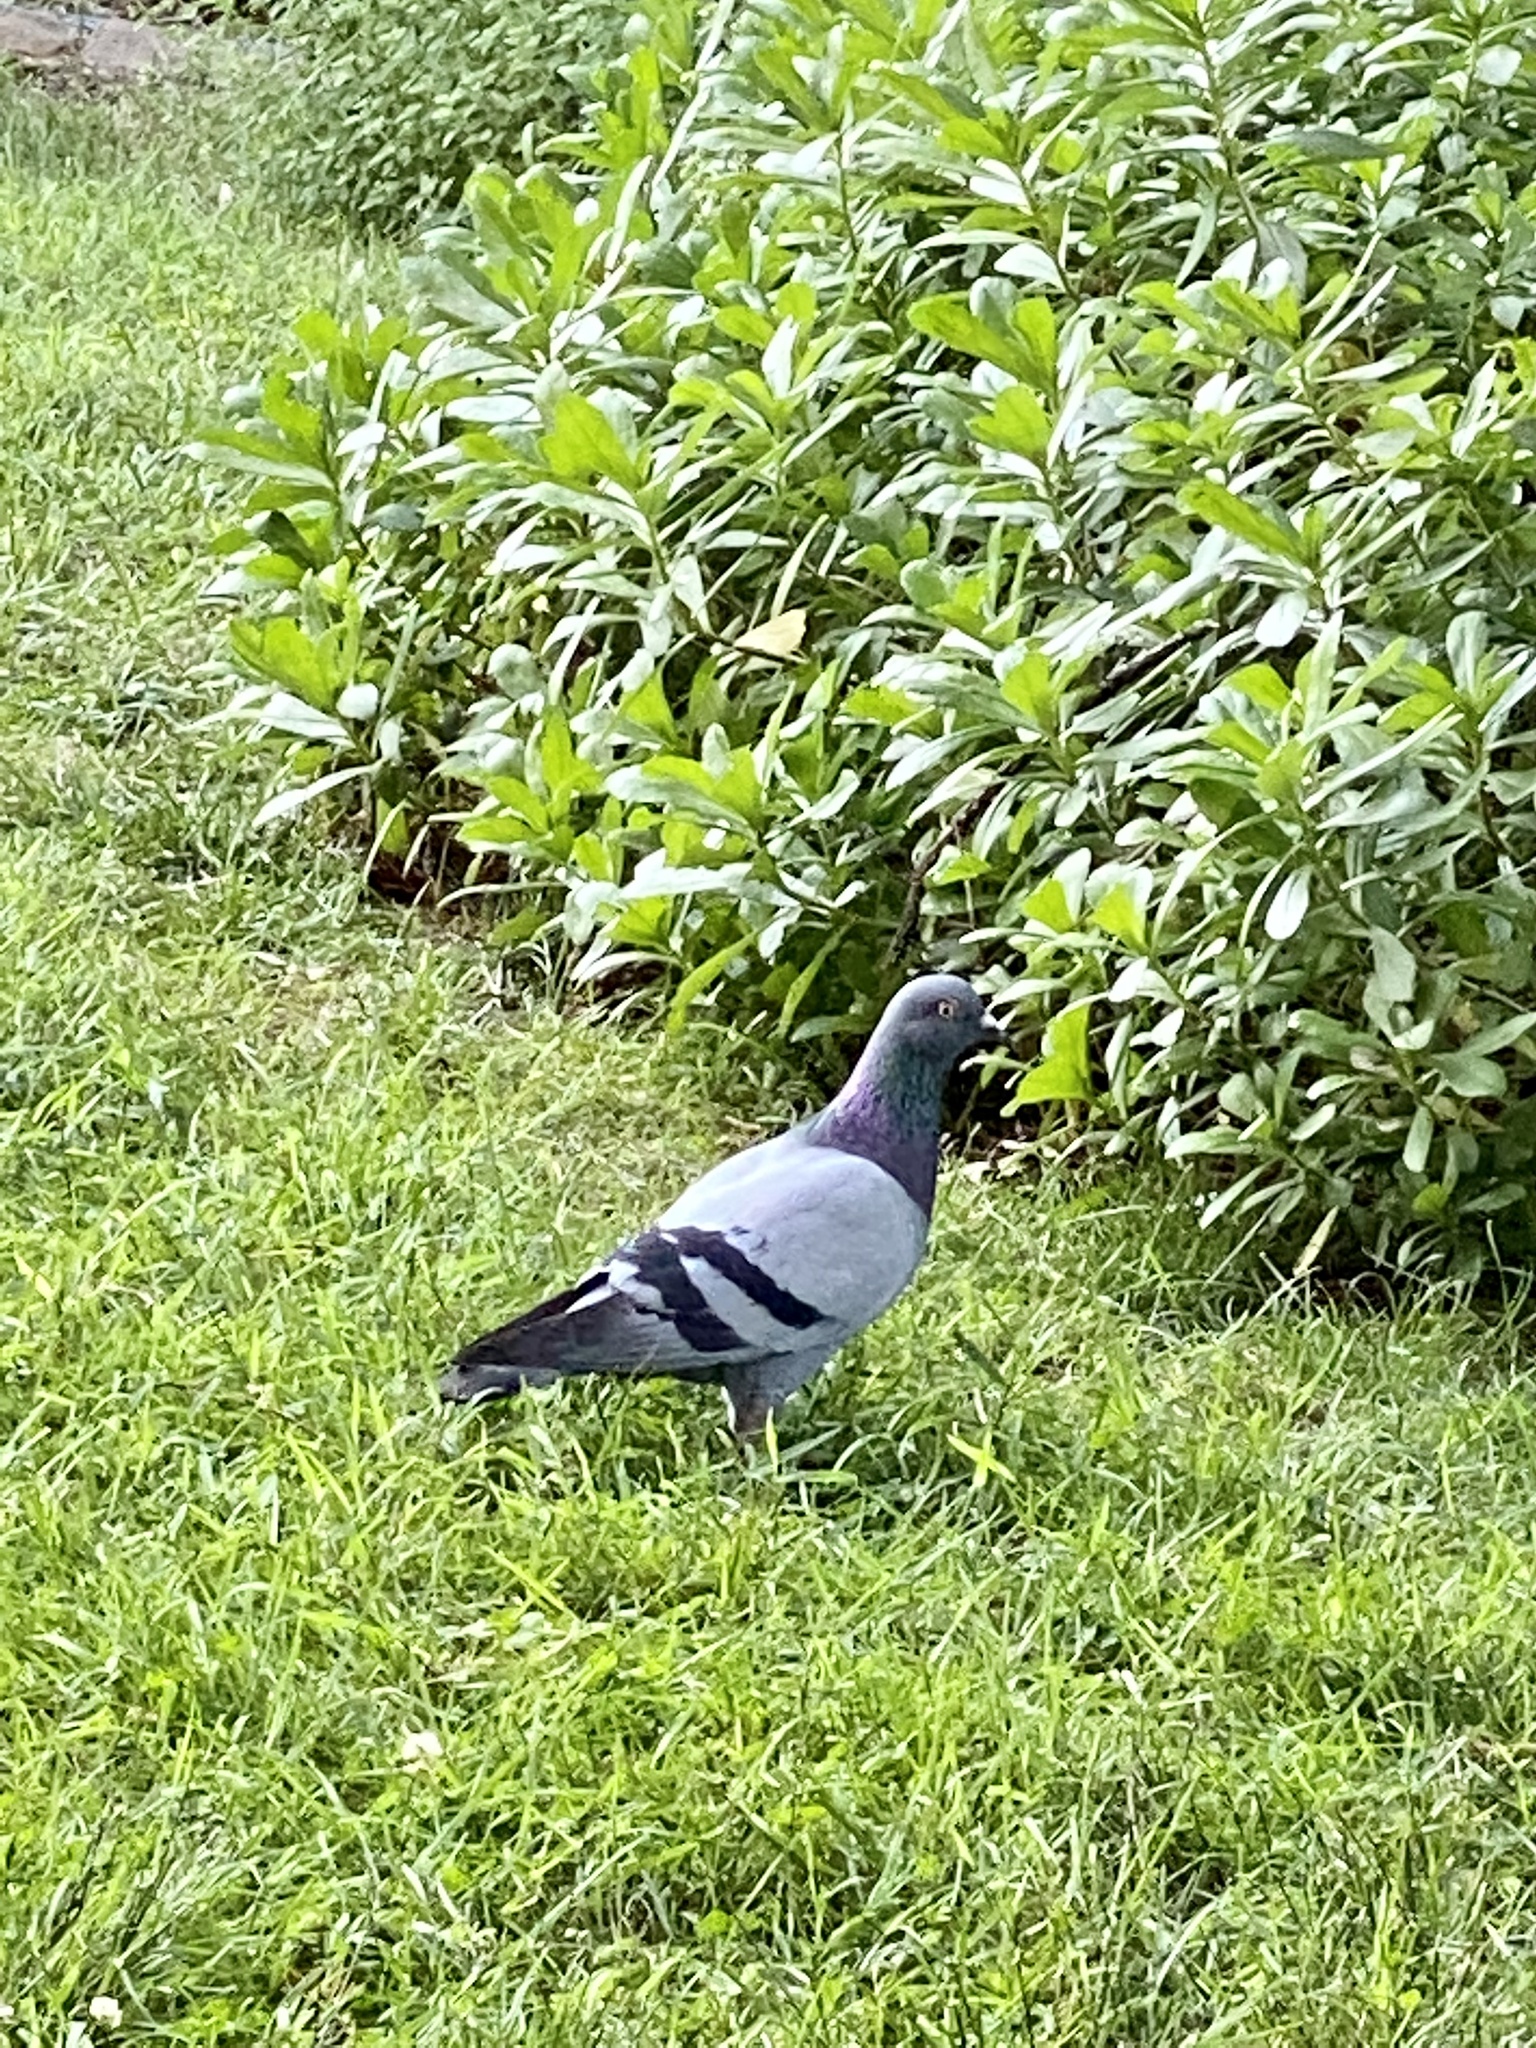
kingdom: Animalia
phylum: Chordata
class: Aves
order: Columbiformes
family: Columbidae
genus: Columba
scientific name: Columba livia
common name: Rock pigeon
